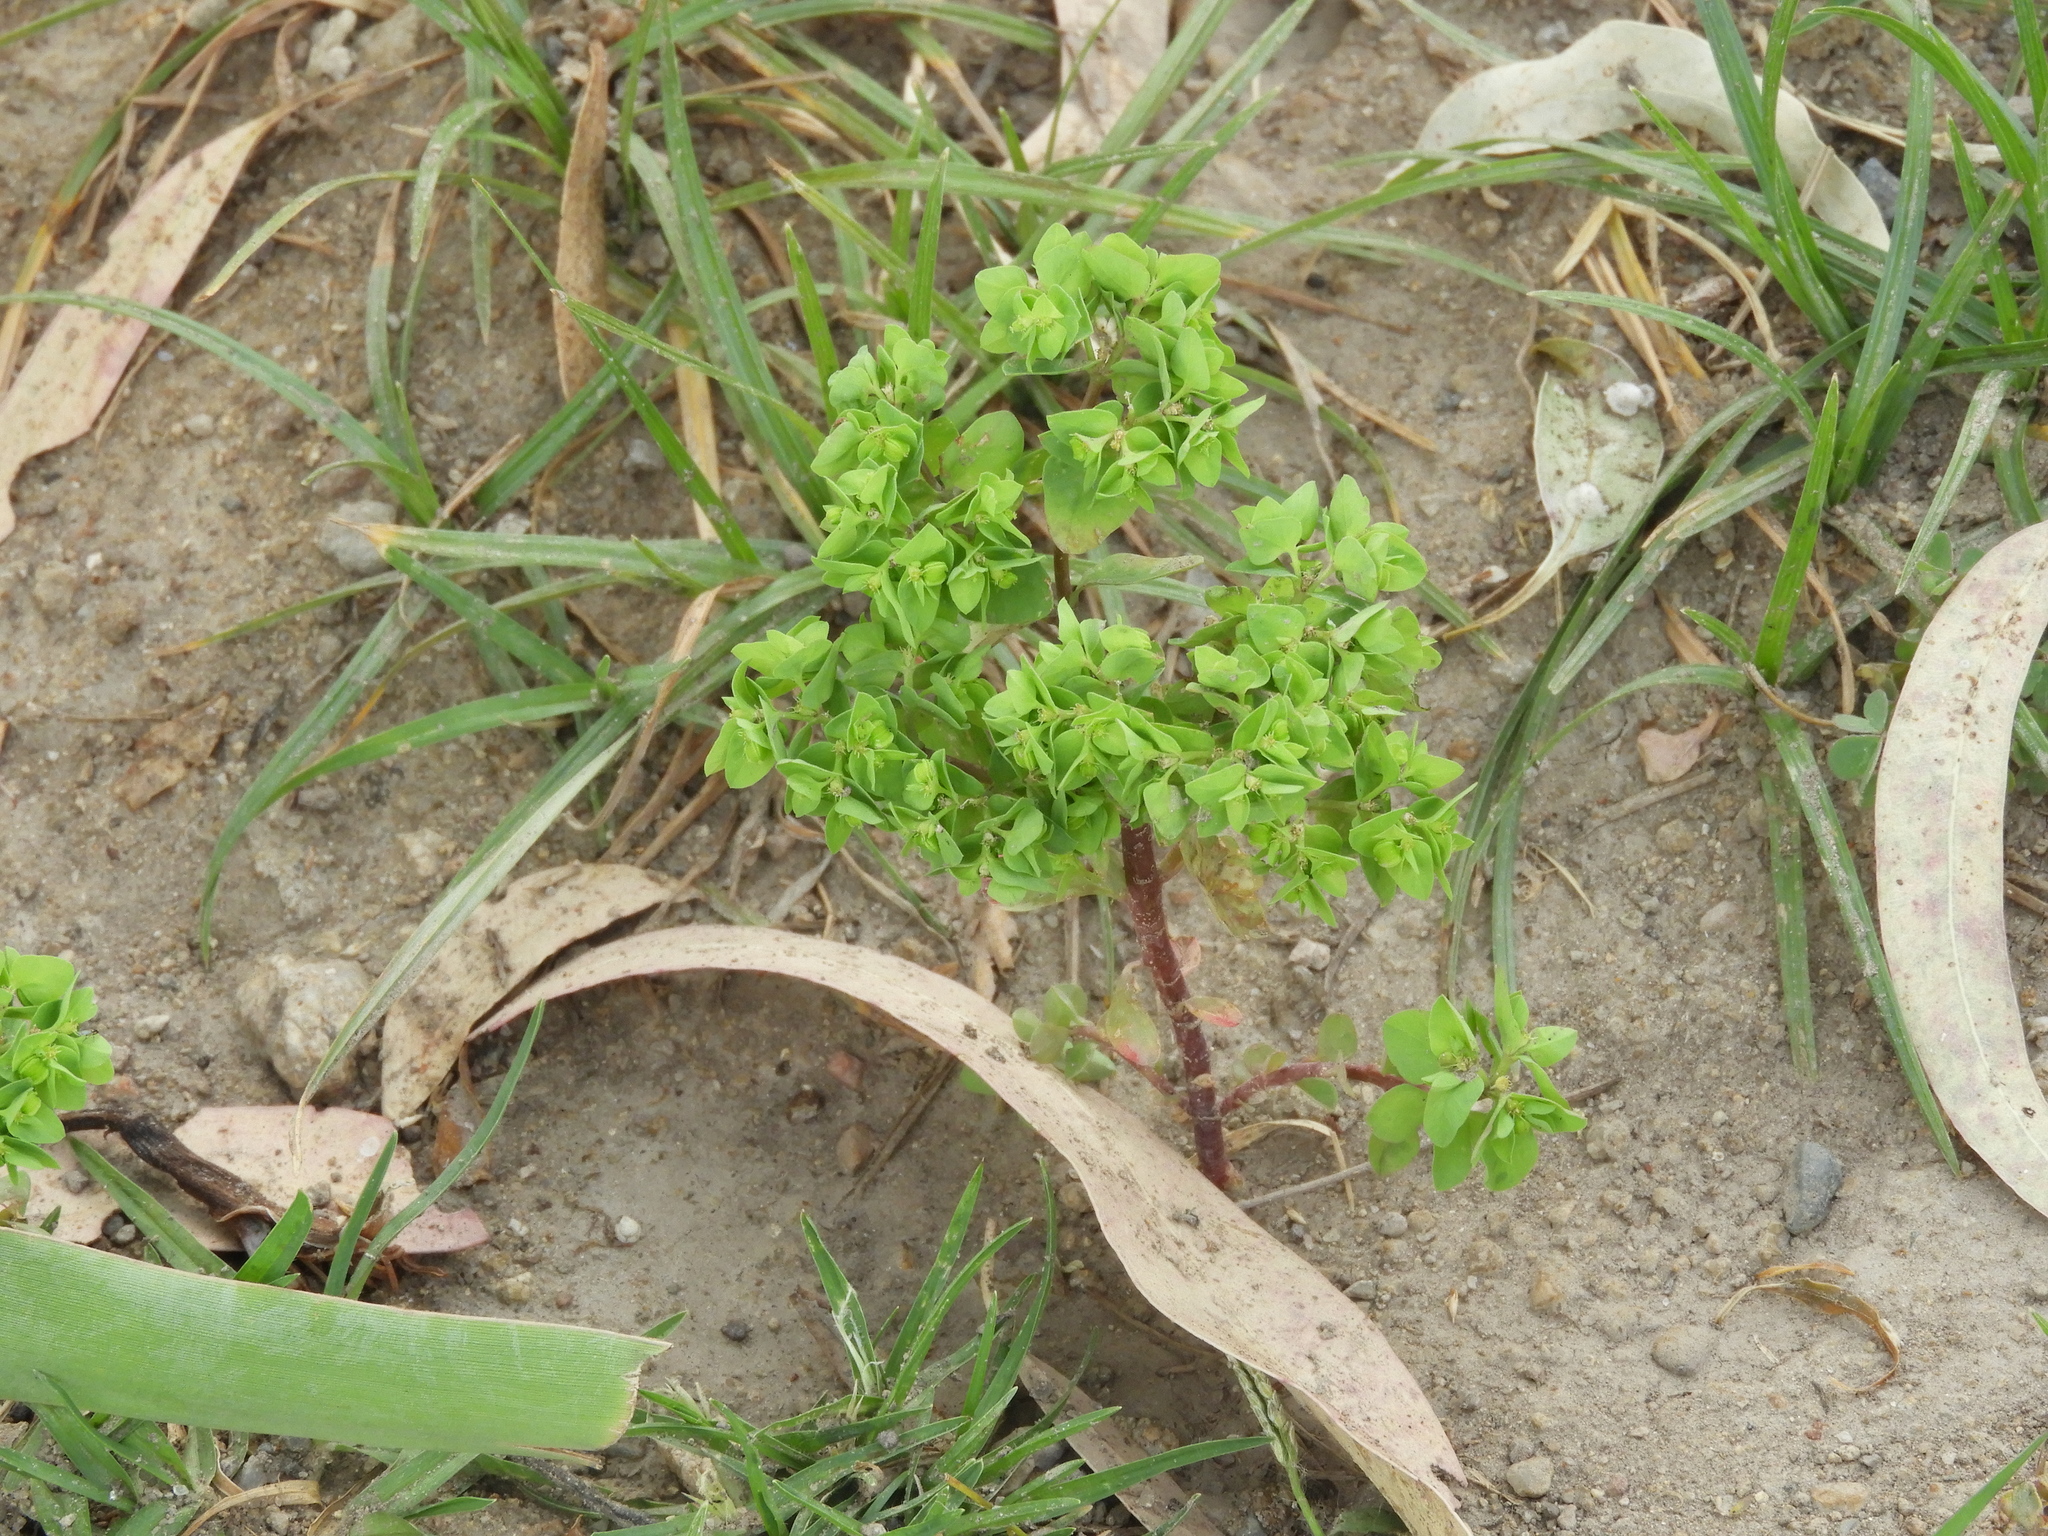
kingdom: Plantae
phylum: Tracheophyta
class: Magnoliopsida
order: Malpighiales
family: Euphorbiaceae
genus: Euphorbia
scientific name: Euphorbia peplus
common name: Petty spurge
